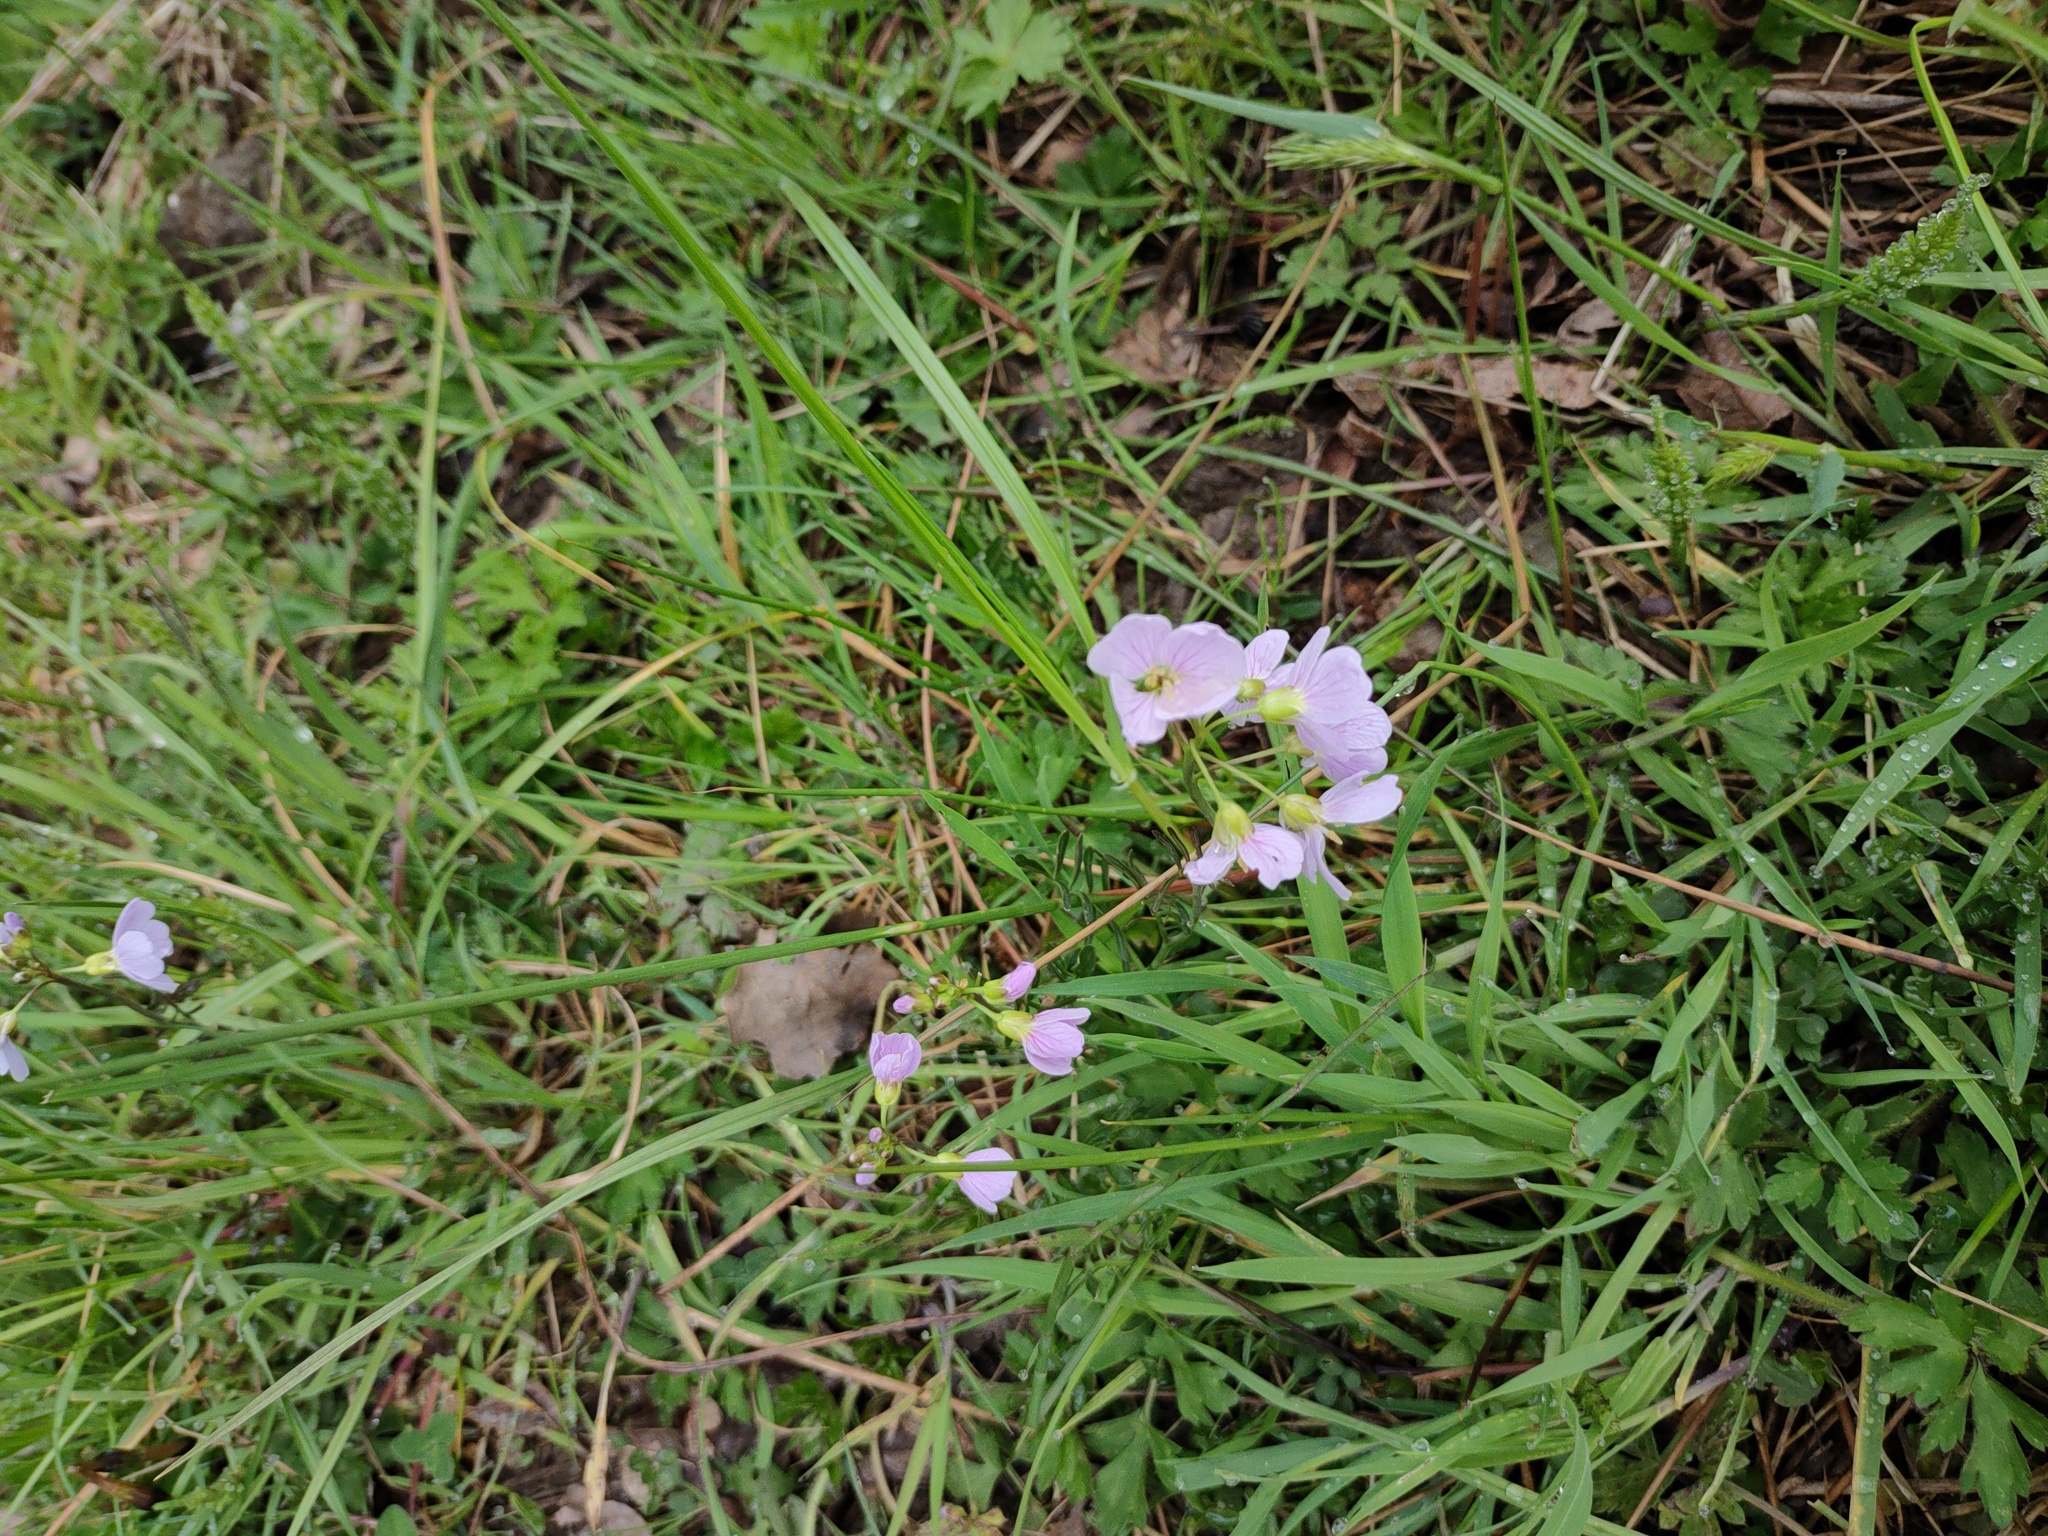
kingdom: Plantae
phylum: Tracheophyta
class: Magnoliopsida
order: Brassicales
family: Brassicaceae
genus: Cardamine
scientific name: Cardamine pratensis
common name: Cuckoo flower
